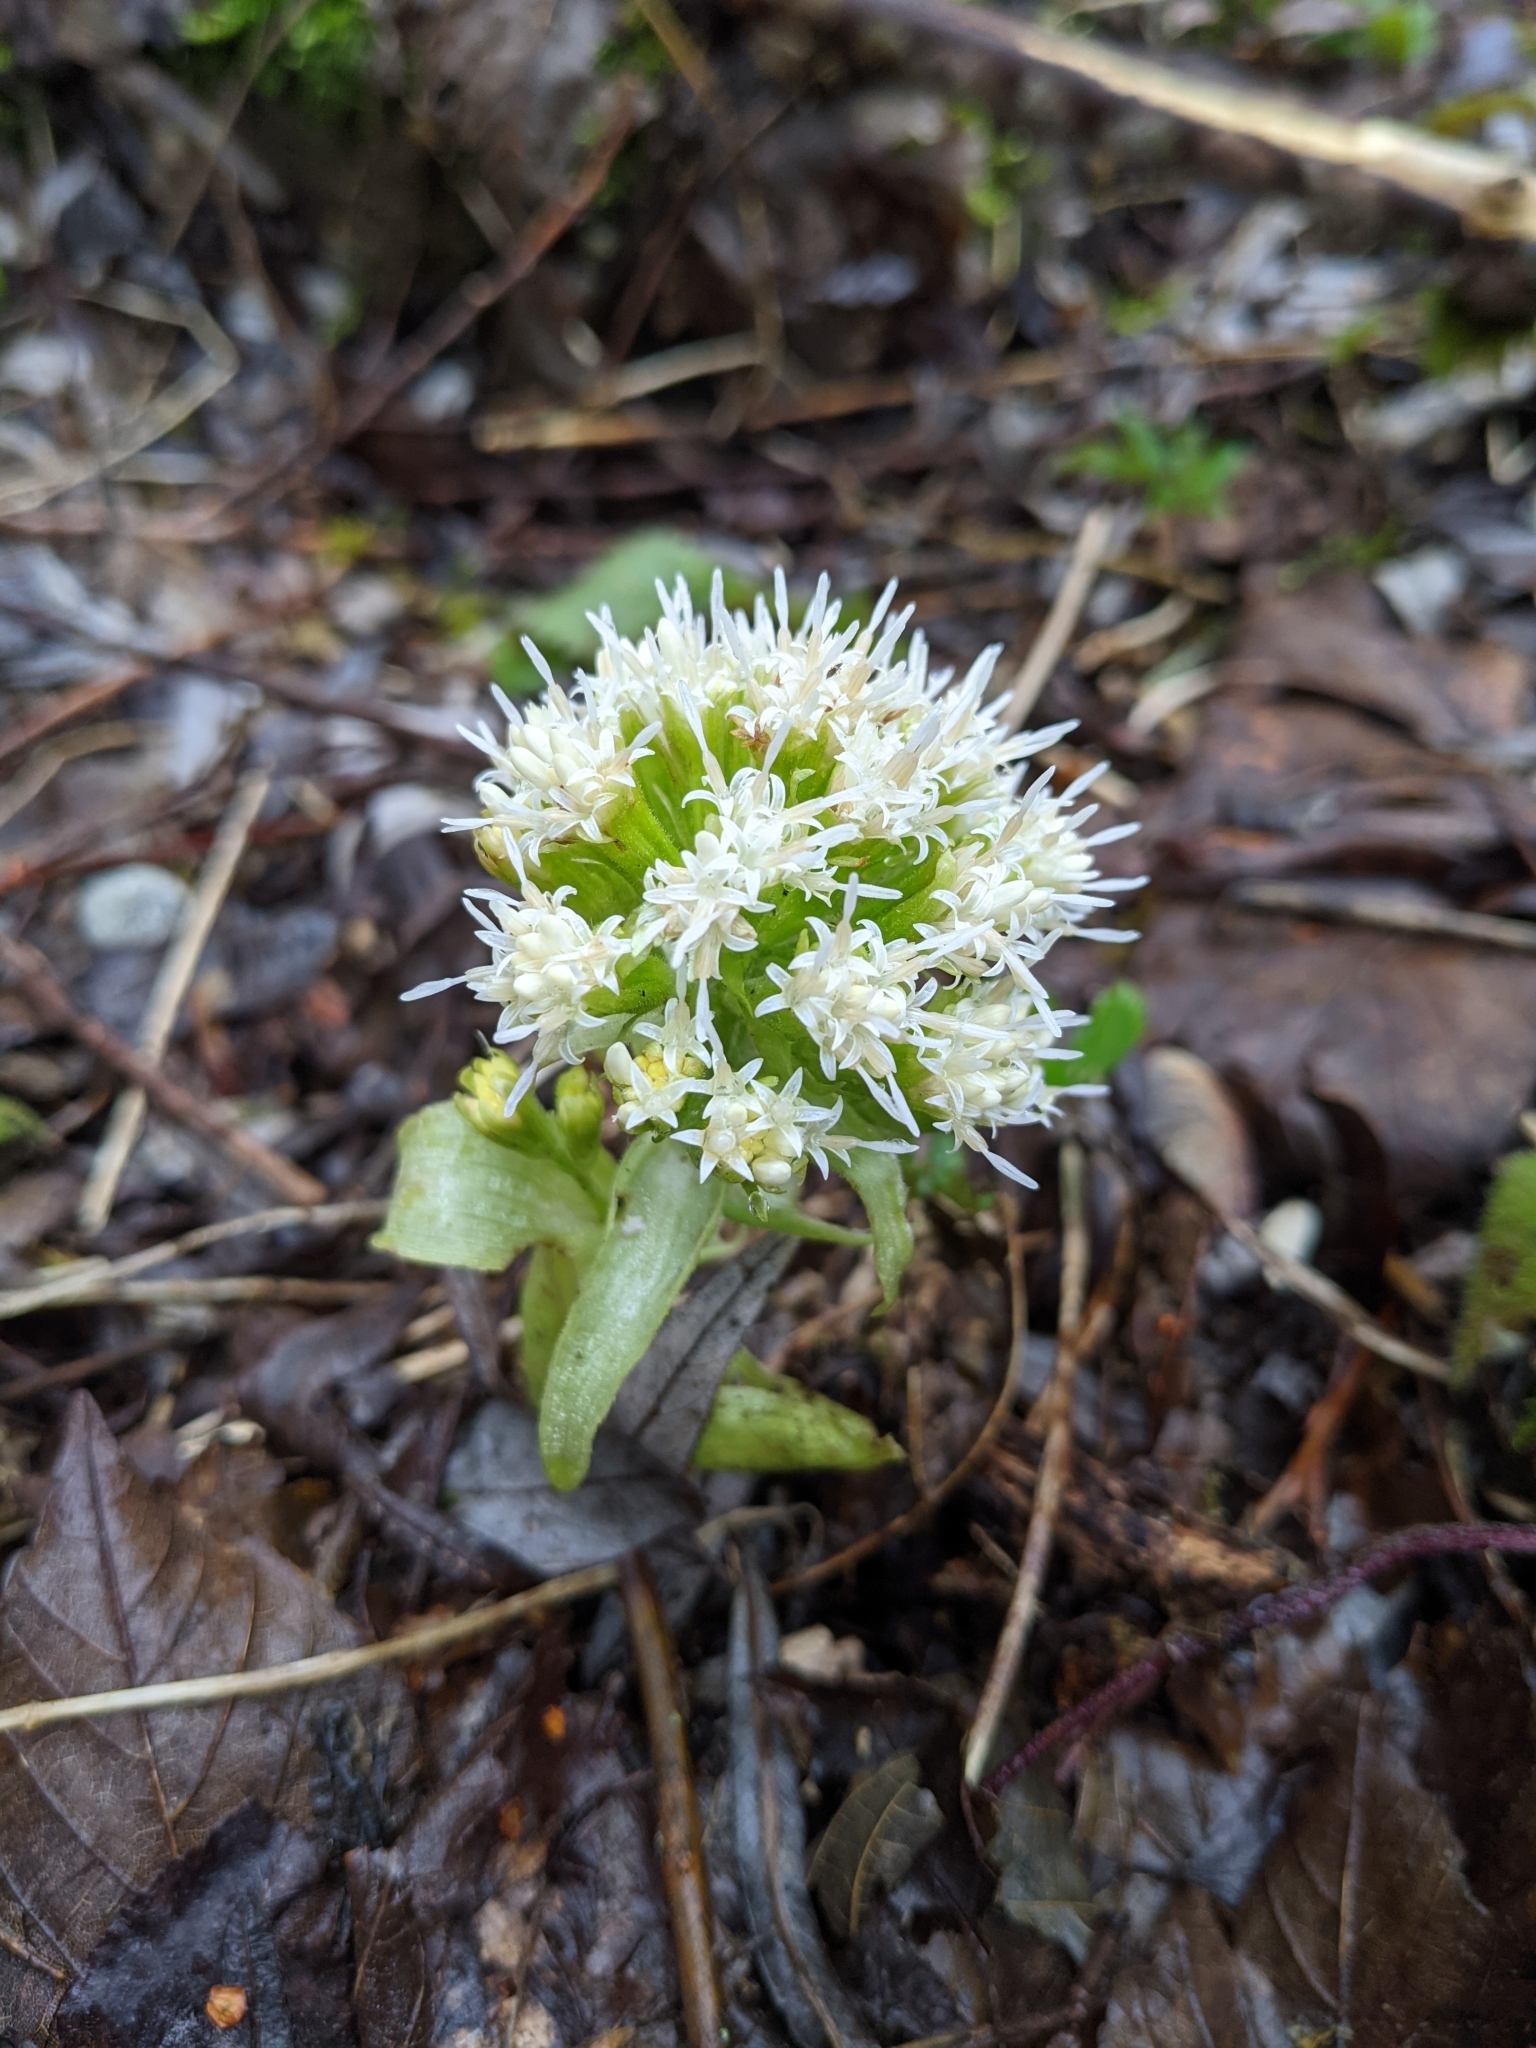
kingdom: Plantae
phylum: Tracheophyta
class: Magnoliopsida
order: Asterales
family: Asteraceae
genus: Petasites
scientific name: Petasites albus
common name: White butterbur
